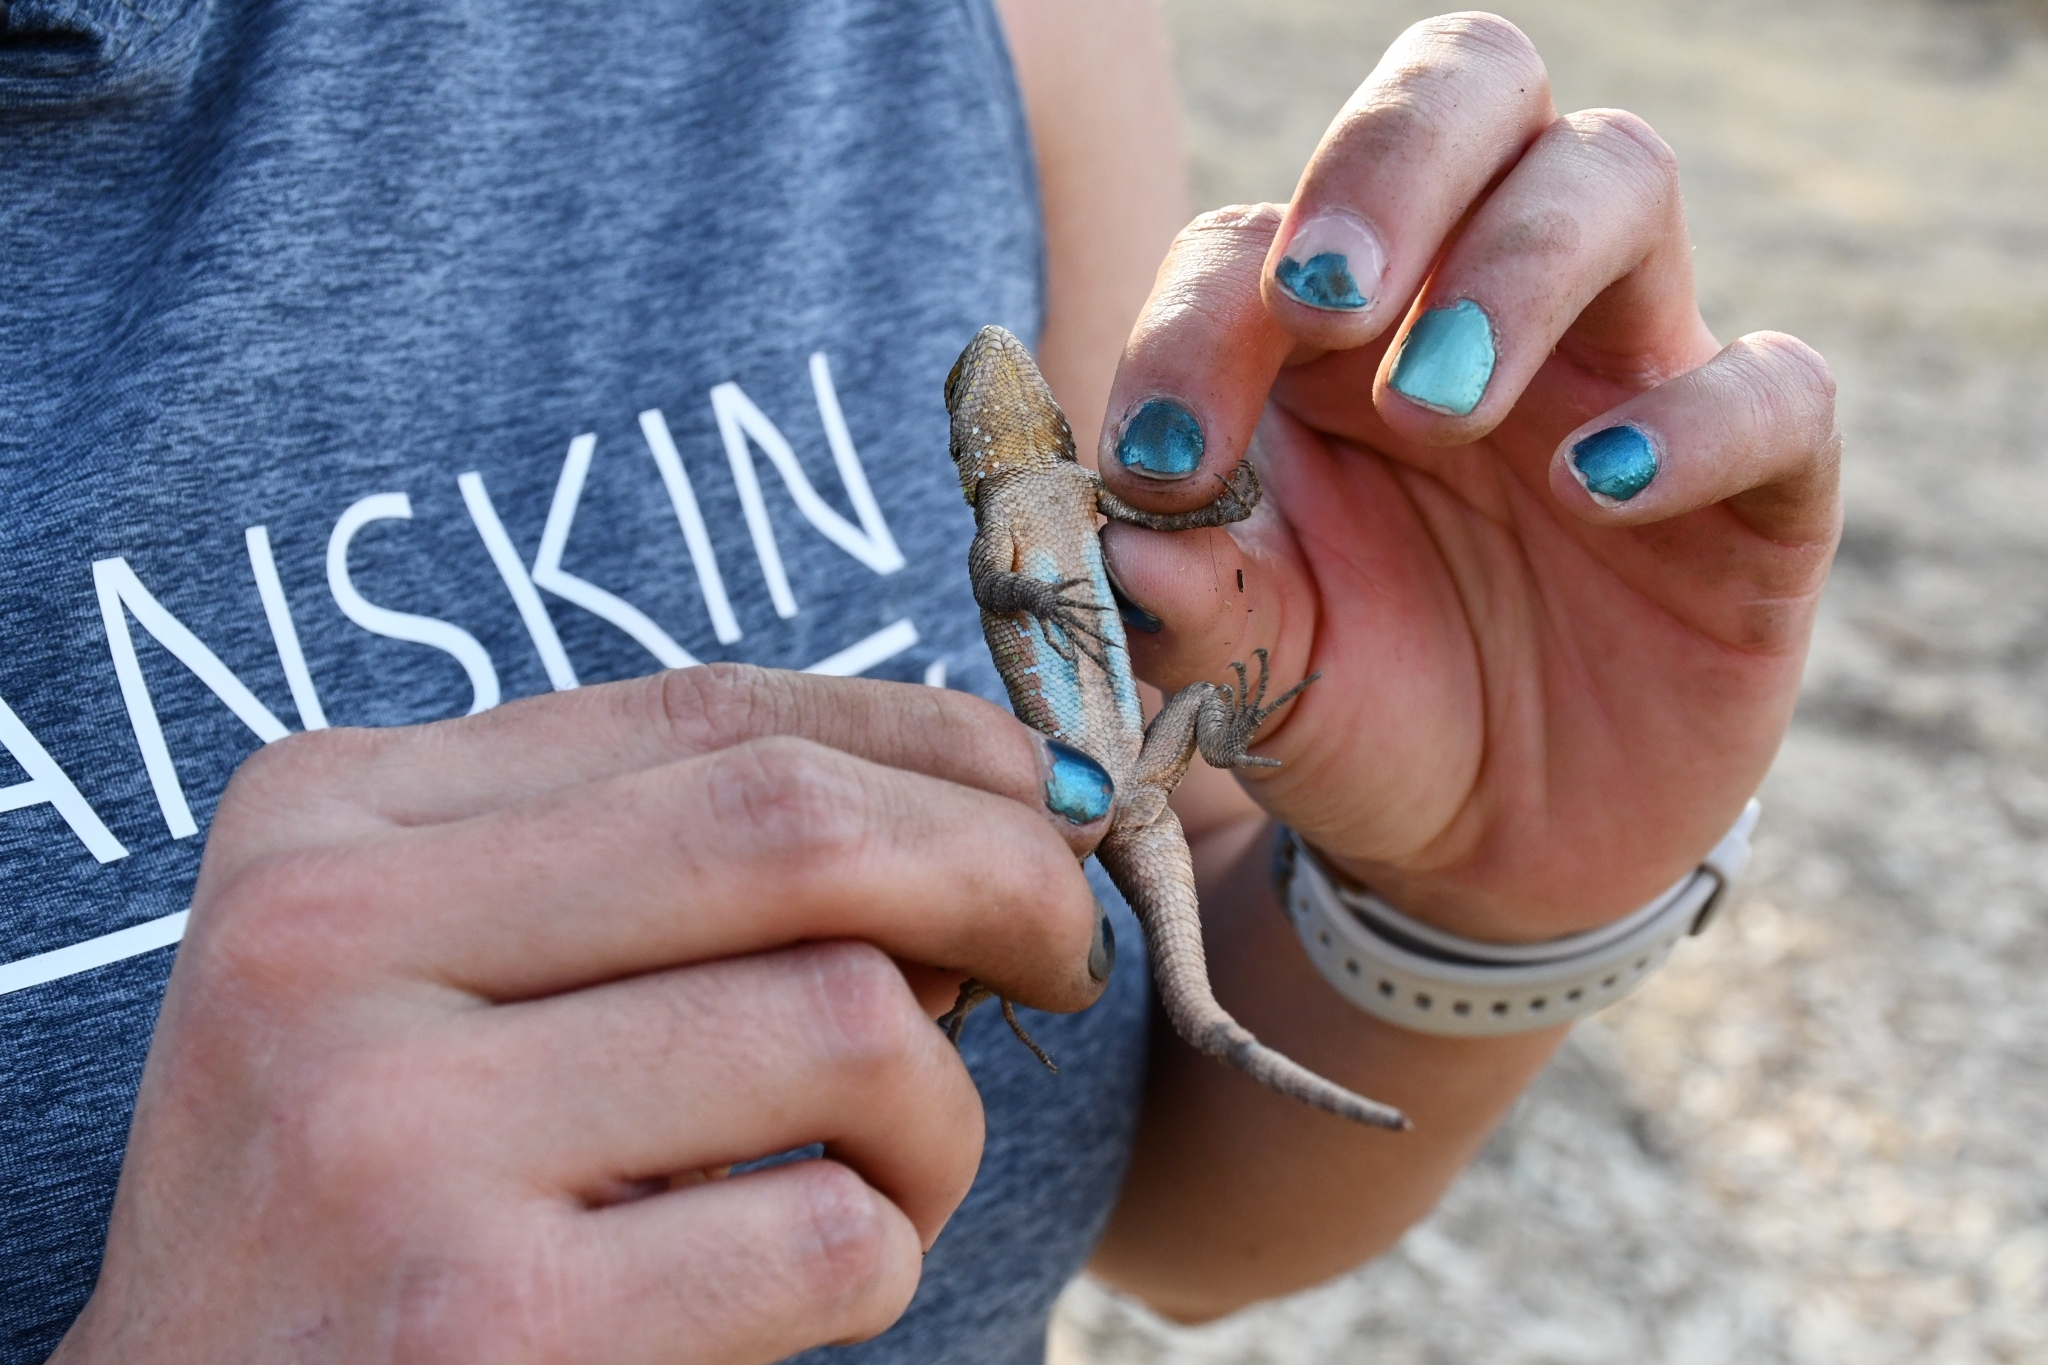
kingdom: Animalia
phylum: Chordata
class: Squamata
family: Phrynosomatidae
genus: Sceloporus
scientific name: Sceloporus grammicus
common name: Mesquite lizard
